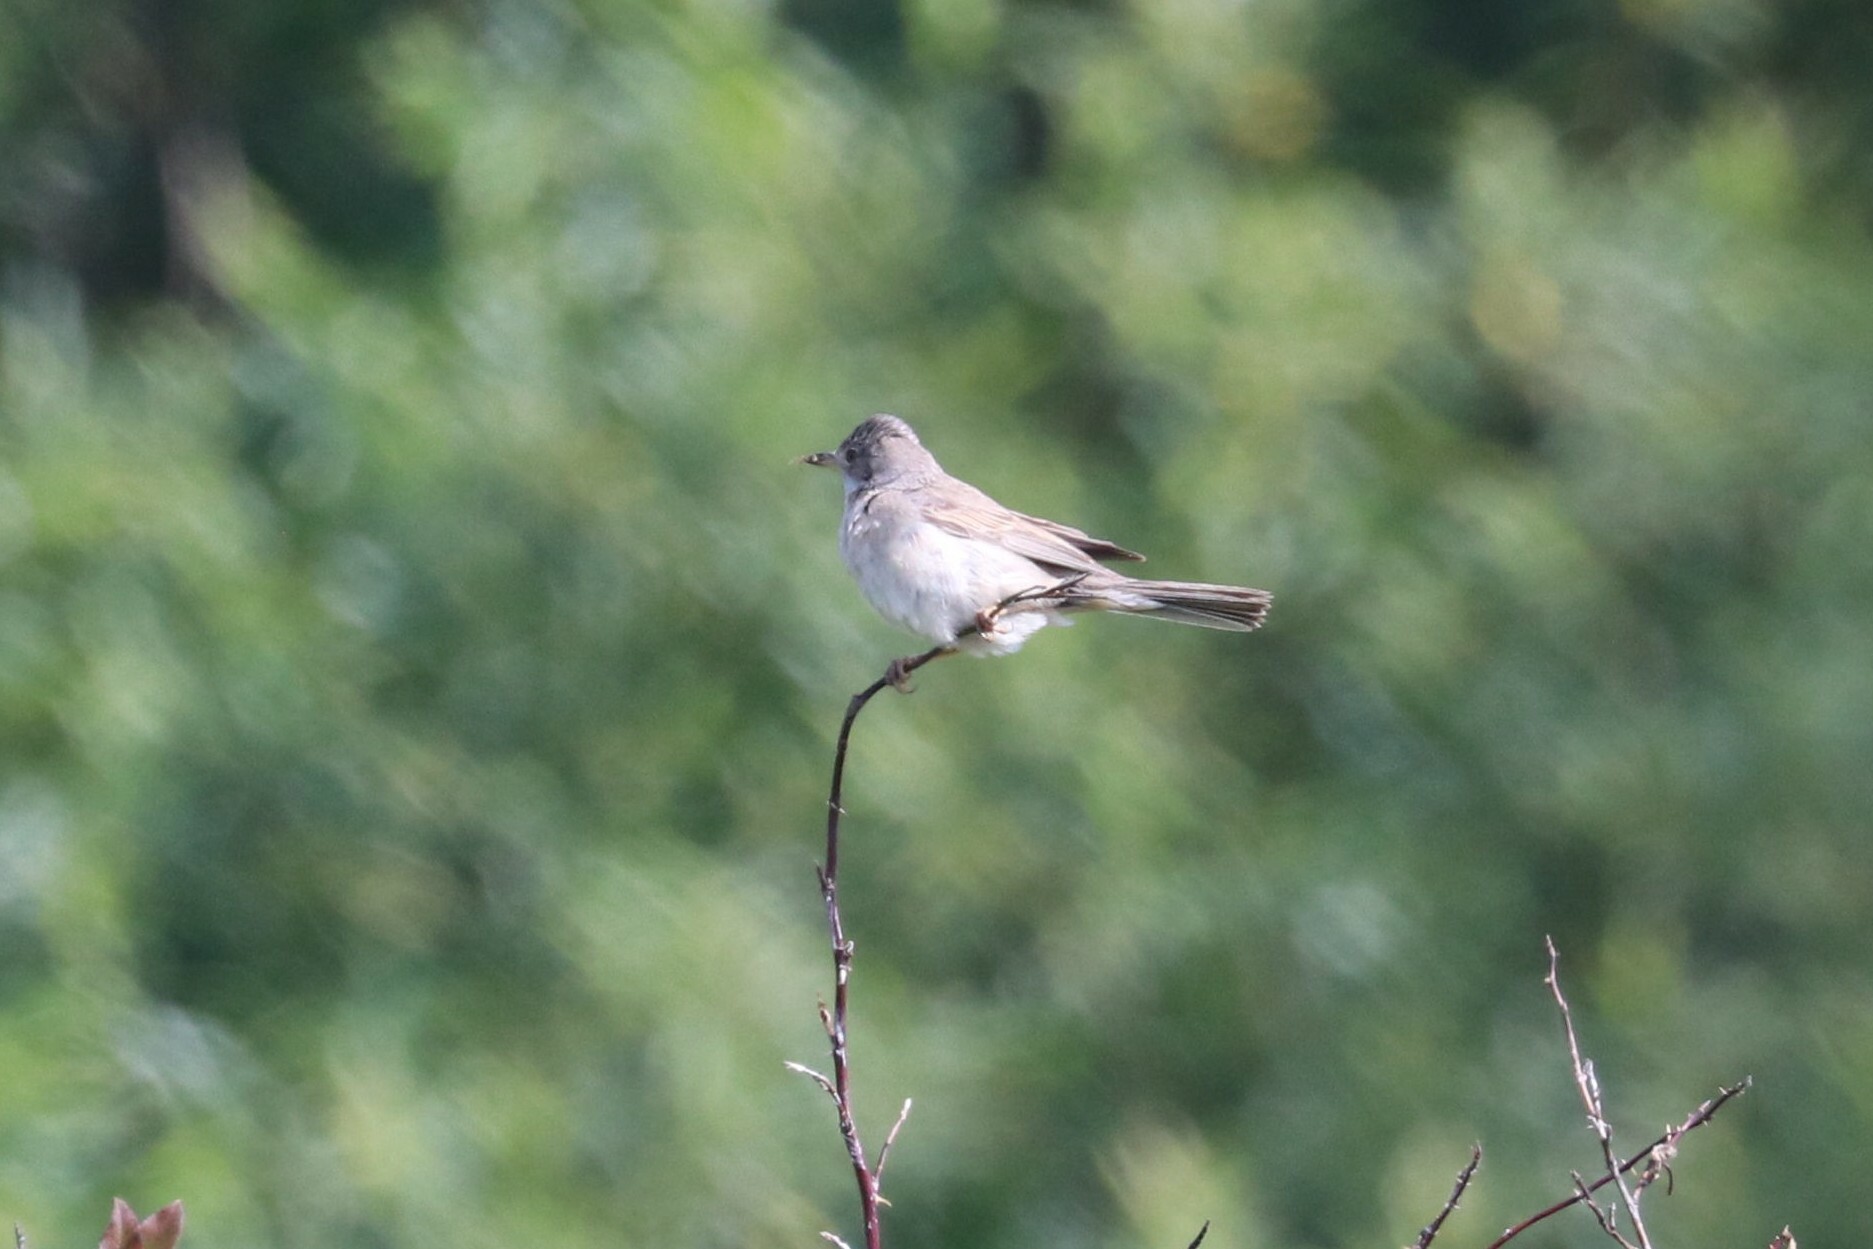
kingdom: Animalia
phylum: Chordata
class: Aves
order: Passeriformes
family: Sylviidae
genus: Sylvia
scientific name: Sylvia communis
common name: Common whitethroat
